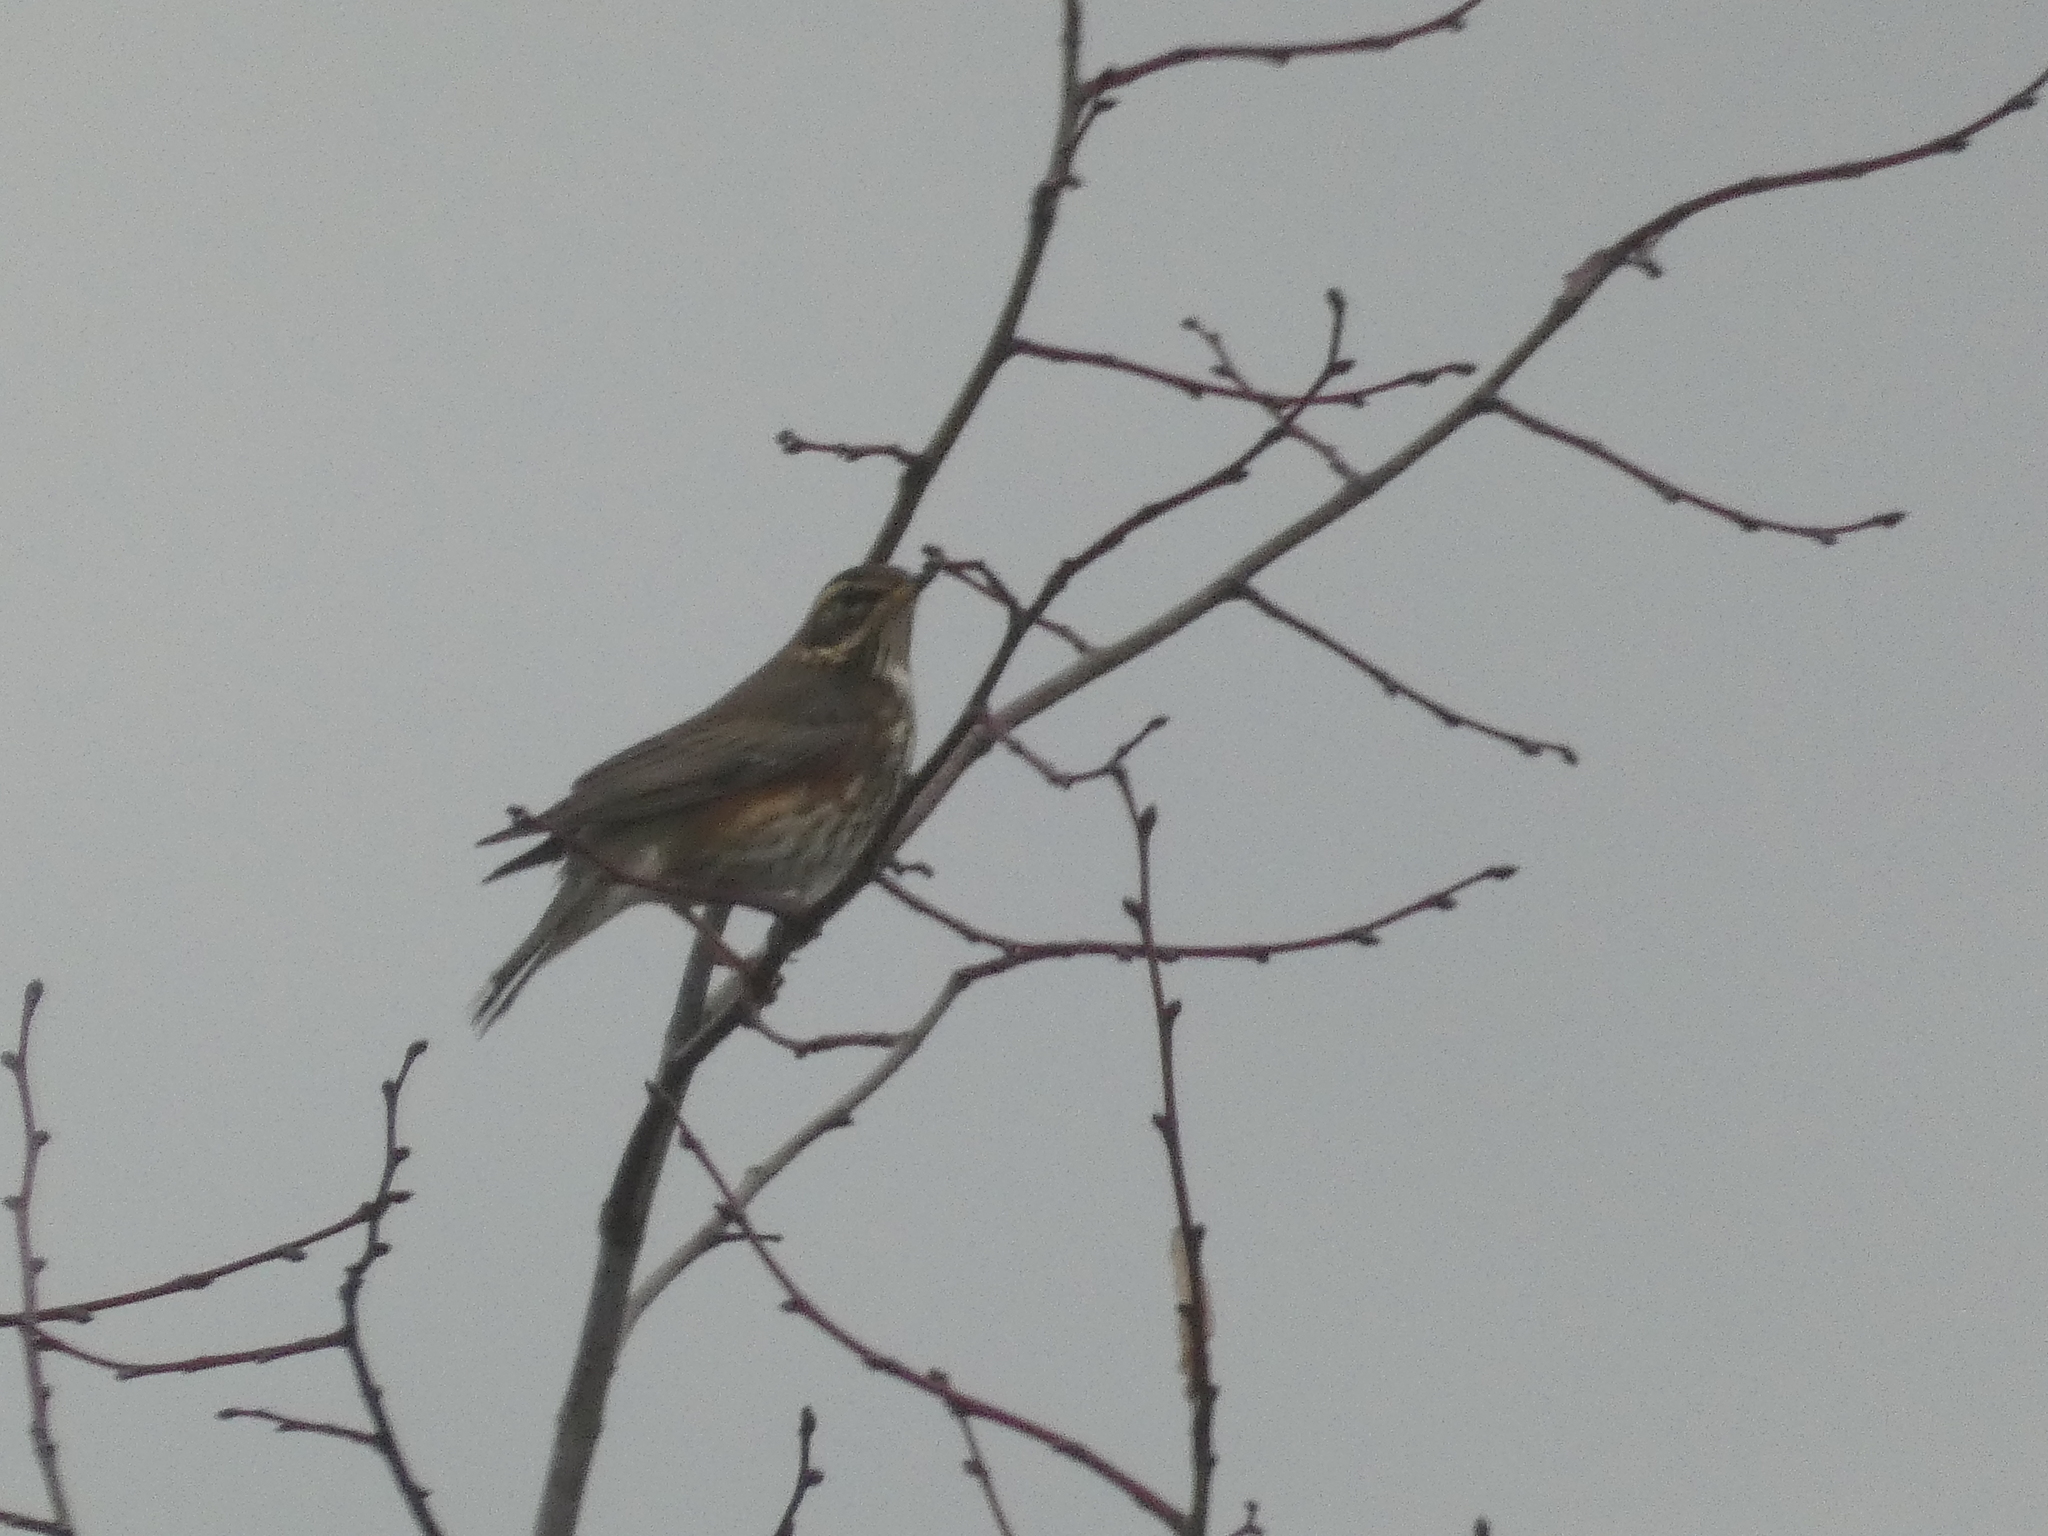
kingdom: Animalia
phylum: Chordata
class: Aves
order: Passeriformes
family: Turdidae
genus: Turdus
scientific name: Turdus iliacus
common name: Redwing
